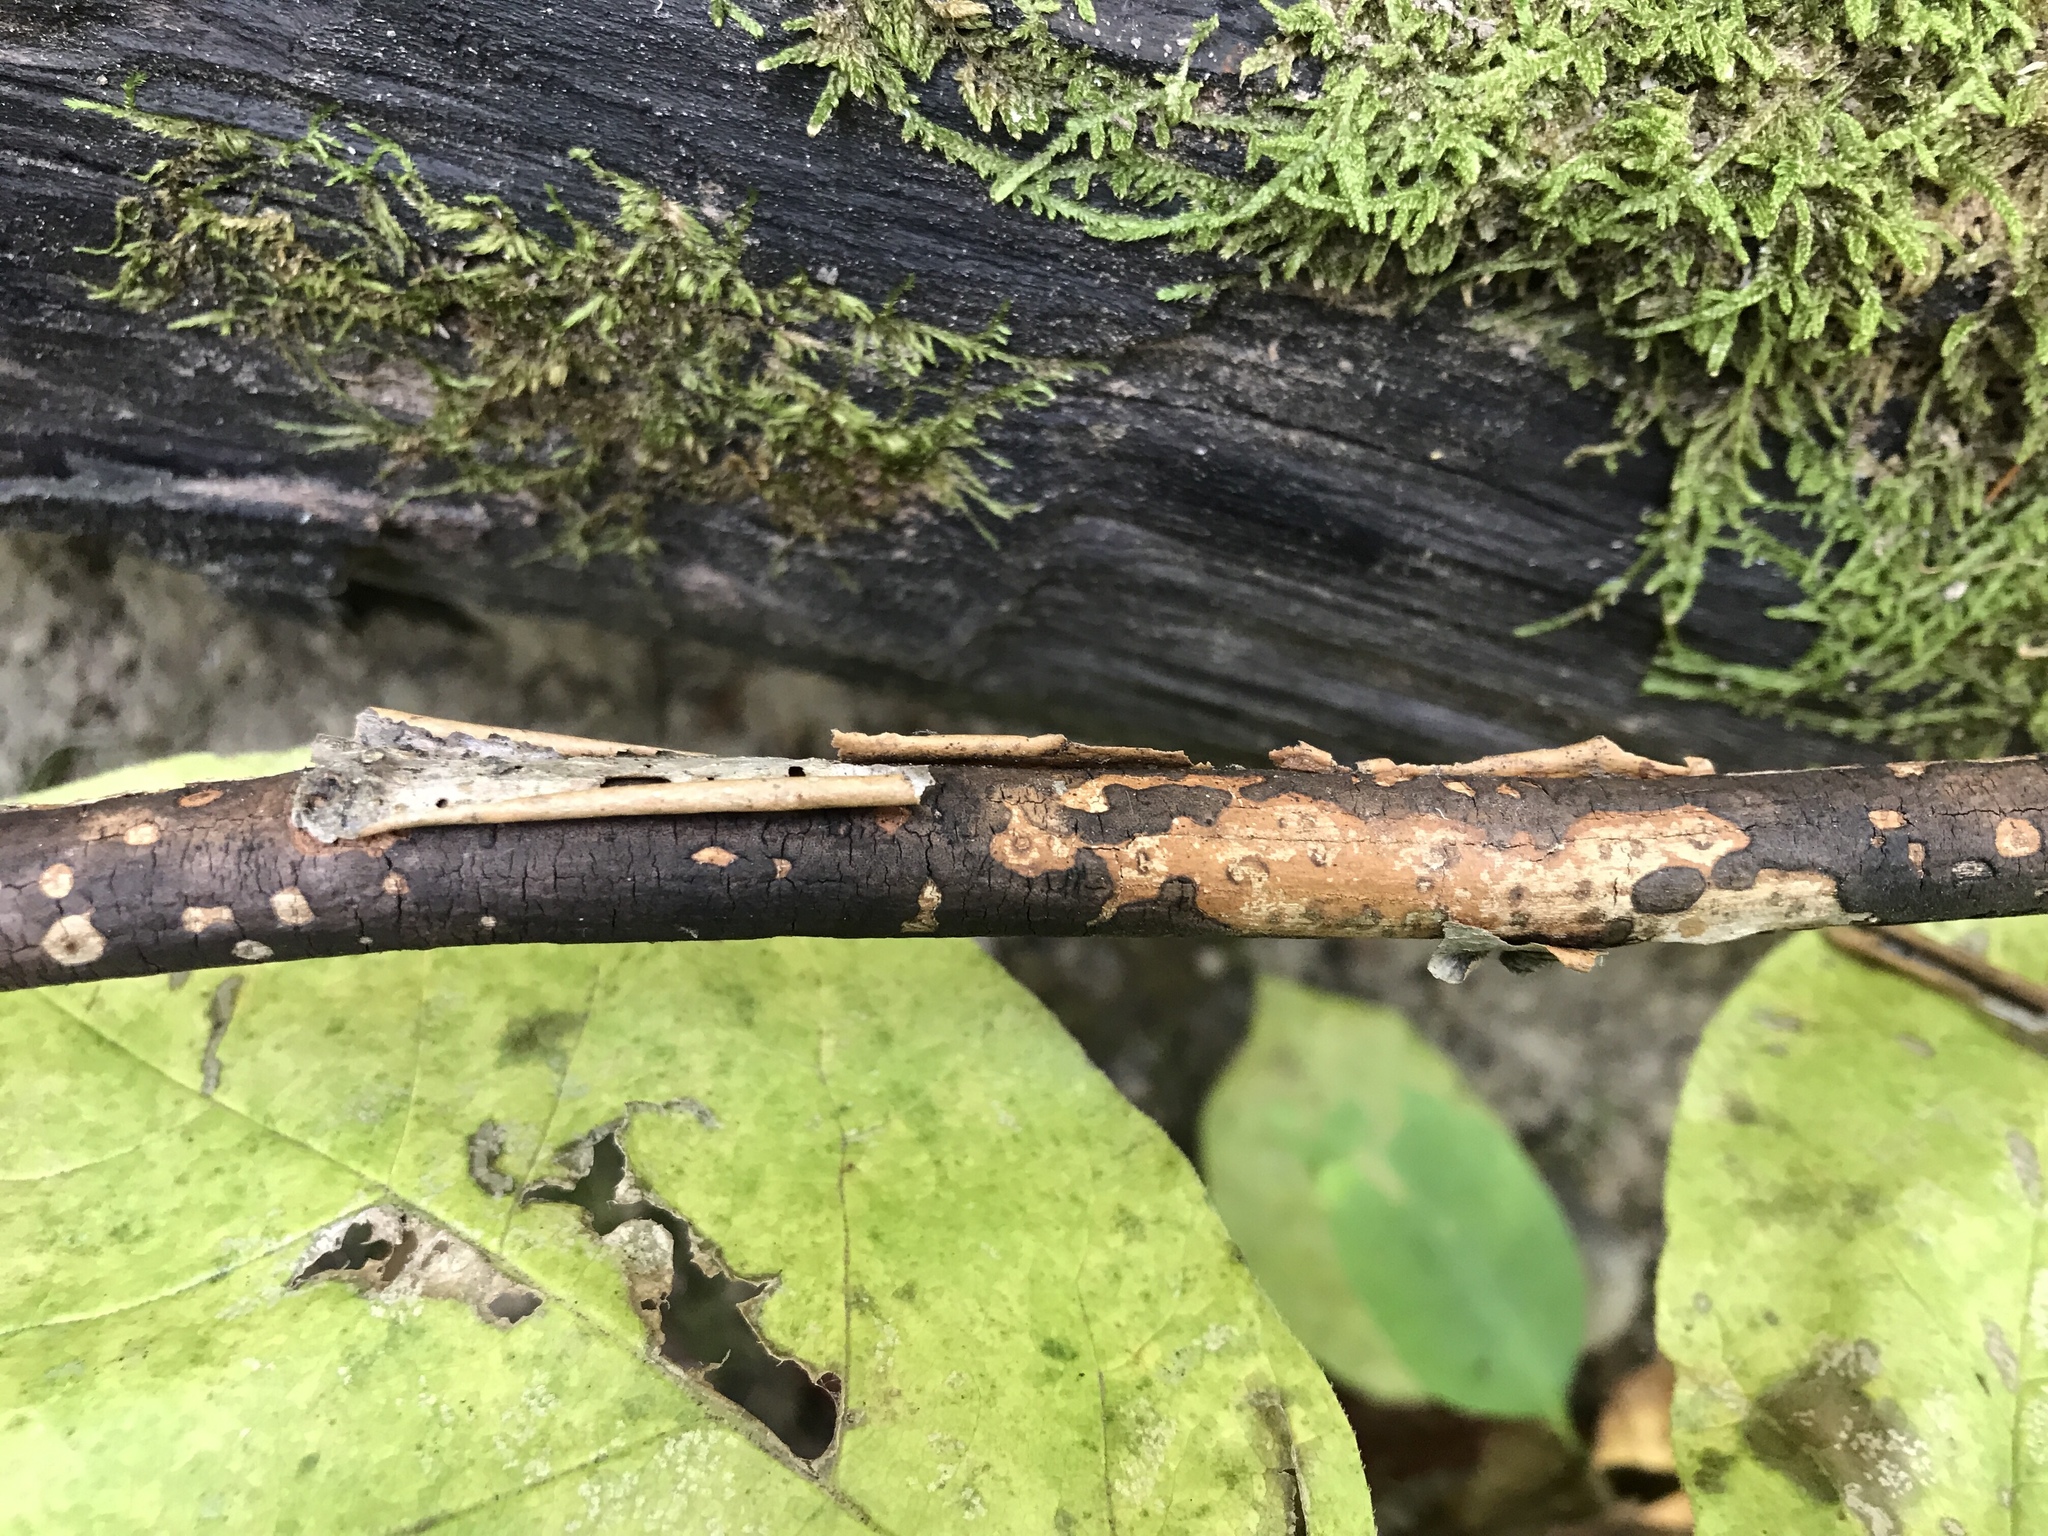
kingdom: Fungi
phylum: Ascomycota
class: Sordariomycetes
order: Xylariales
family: Diatrypaceae
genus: Diatrype
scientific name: Diatrype decorticata
